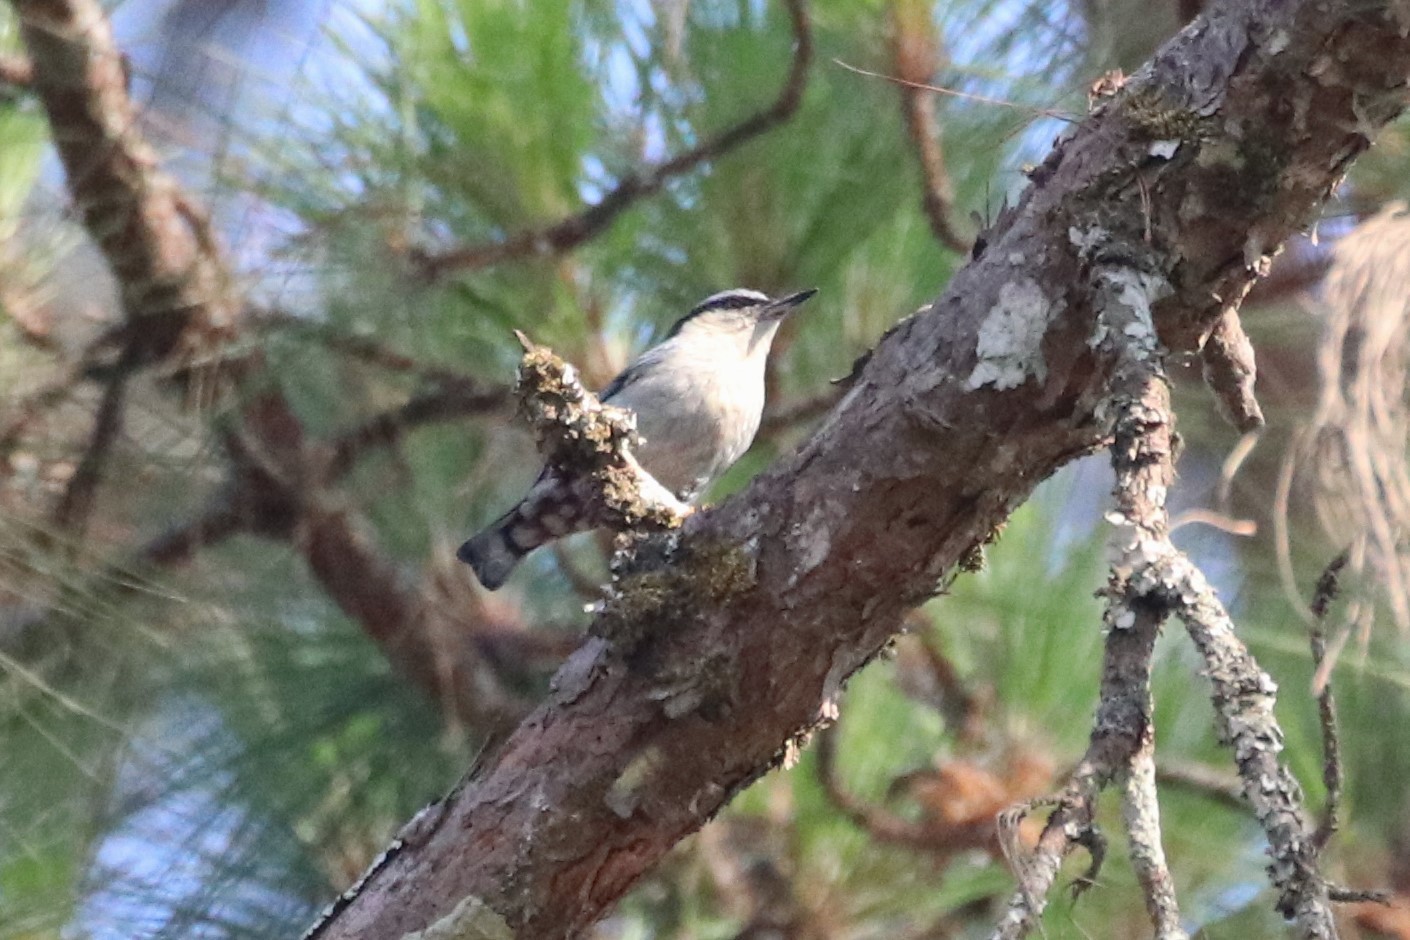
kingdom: Animalia
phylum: Chordata
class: Aves
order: Passeriformes
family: Sittidae
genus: Sitta
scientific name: Sitta nagaensis
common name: Chestnut-vented nuthatch
